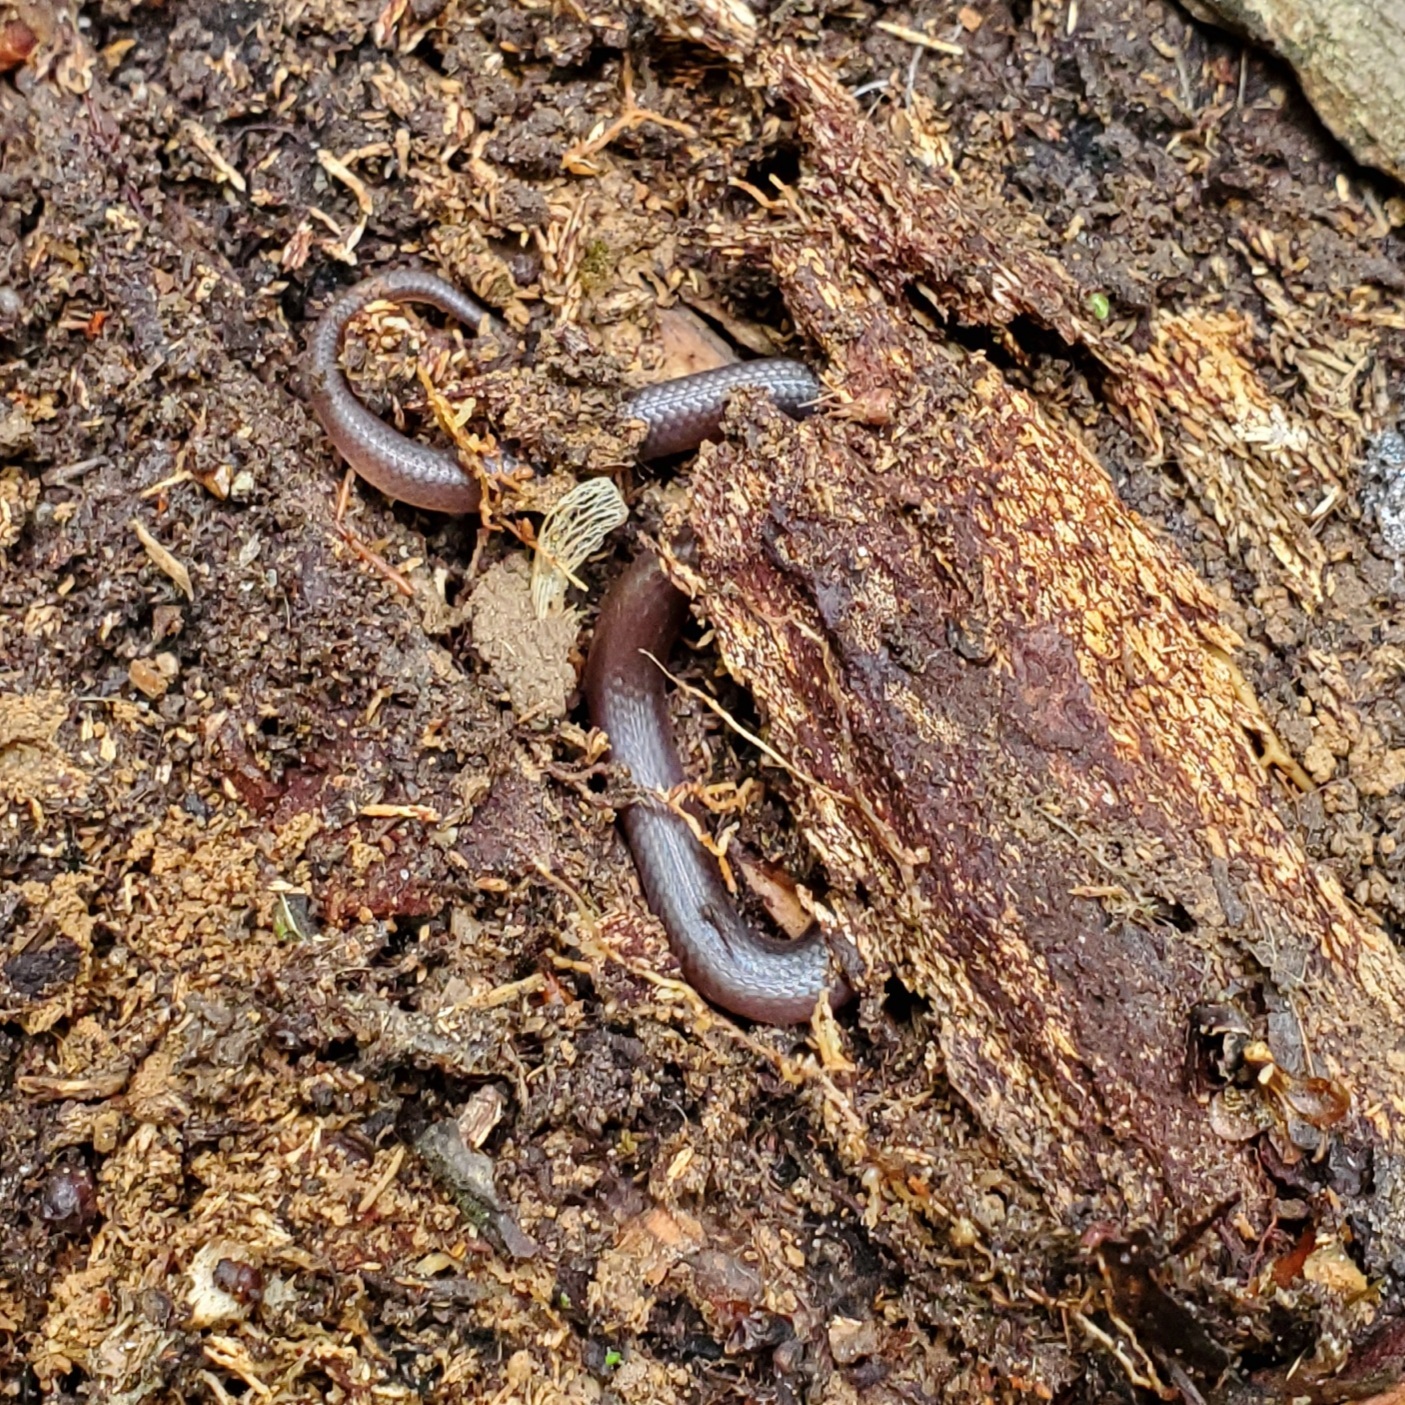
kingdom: Animalia
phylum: Chordata
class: Squamata
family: Colubridae
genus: Carphophis
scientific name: Carphophis amoenus
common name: Eastern worm snake
